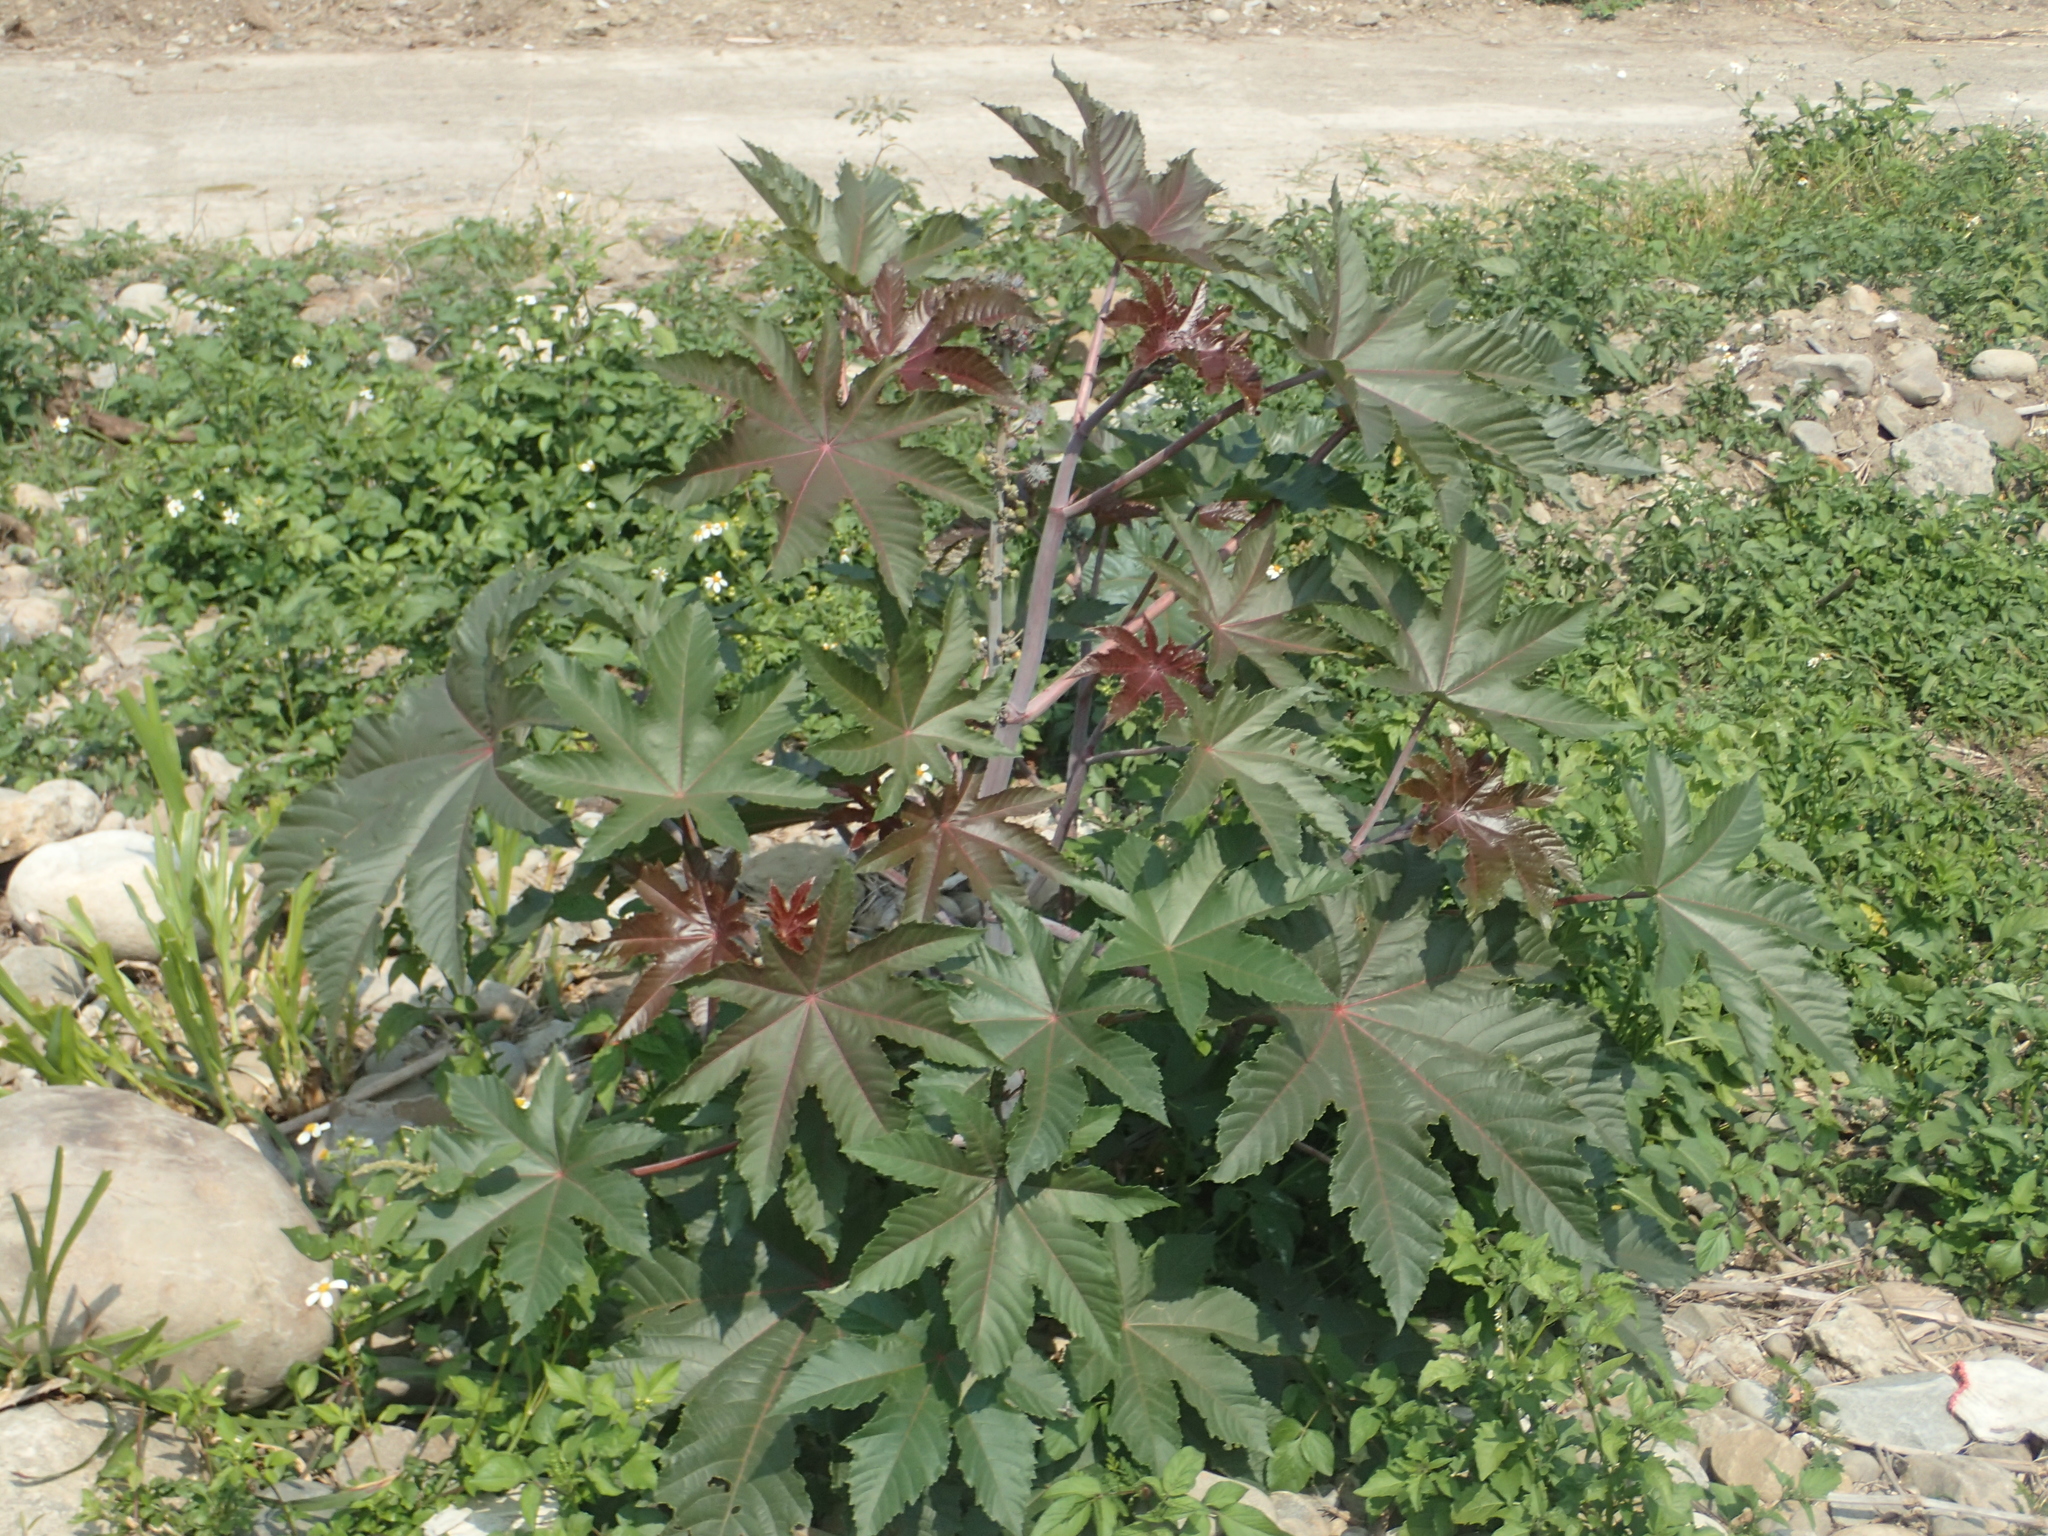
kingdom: Plantae
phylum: Tracheophyta
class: Magnoliopsida
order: Malpighiales
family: Euphorbiaceae
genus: Ricinus
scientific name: Ricinus communis
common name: Castor-oil-plant
